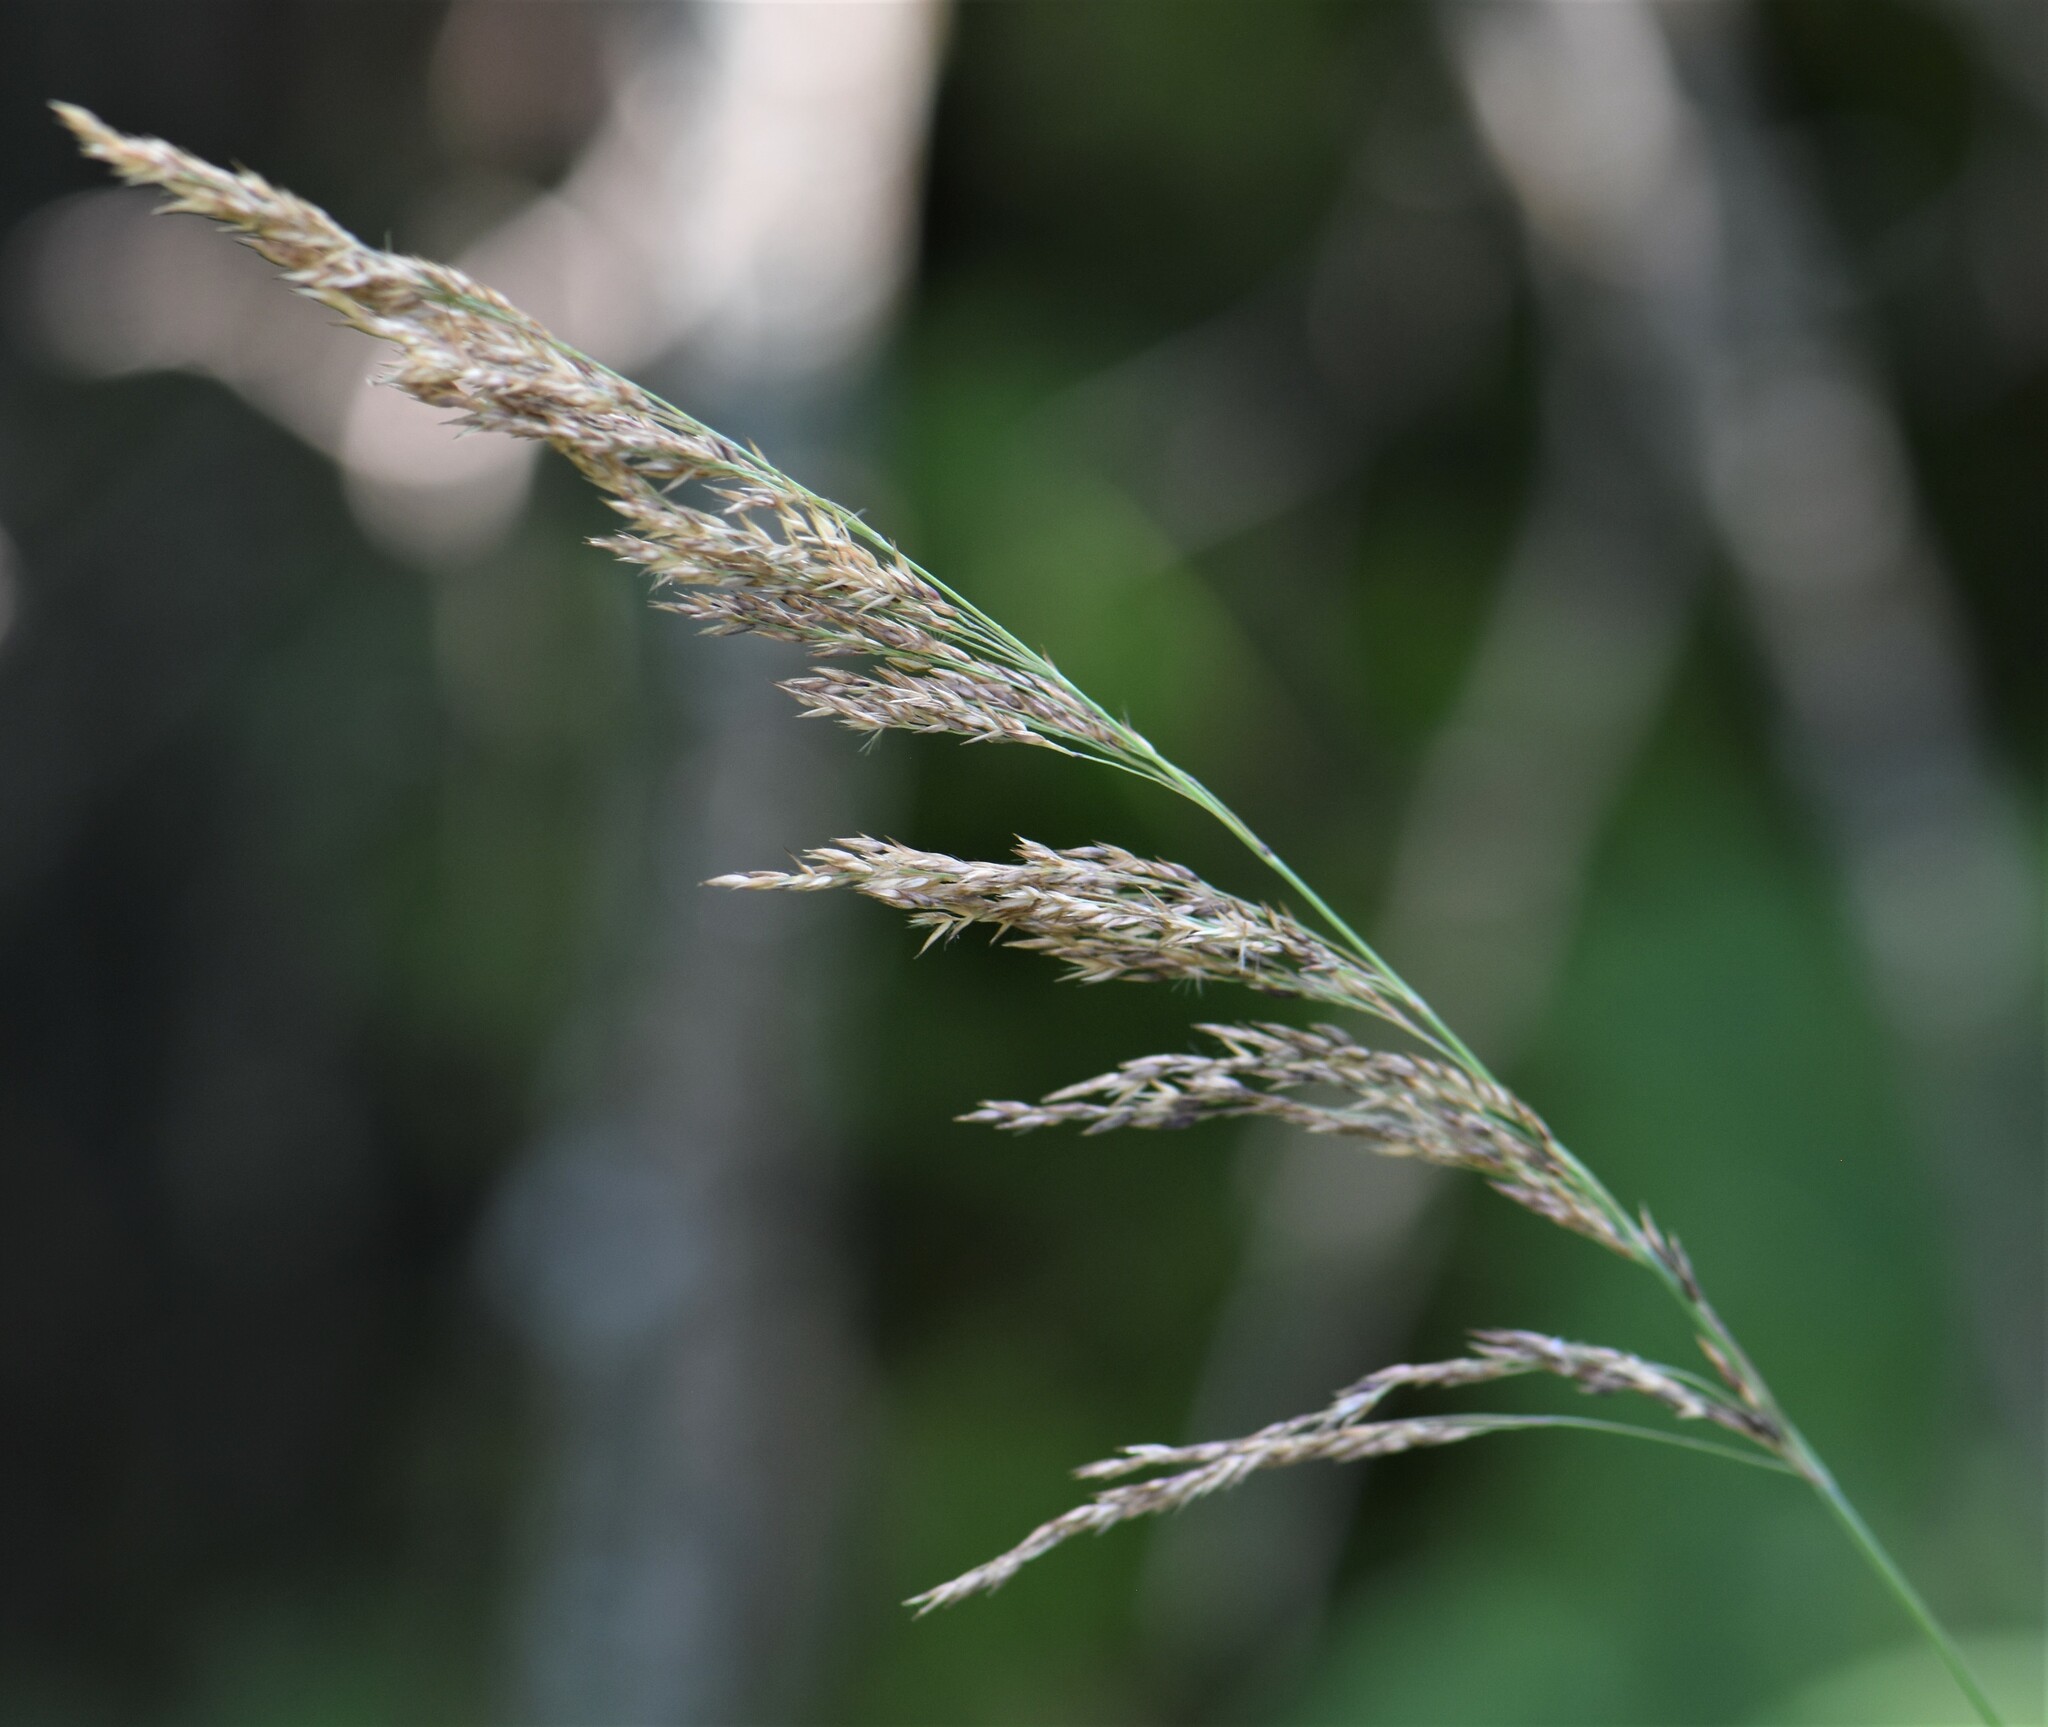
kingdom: Plantae
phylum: Tracheophyta
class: Liliopsida
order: Poales
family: Poaceae
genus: Calamagrostis
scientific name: Calamagrostis canadensis
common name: Canada bluejoint
